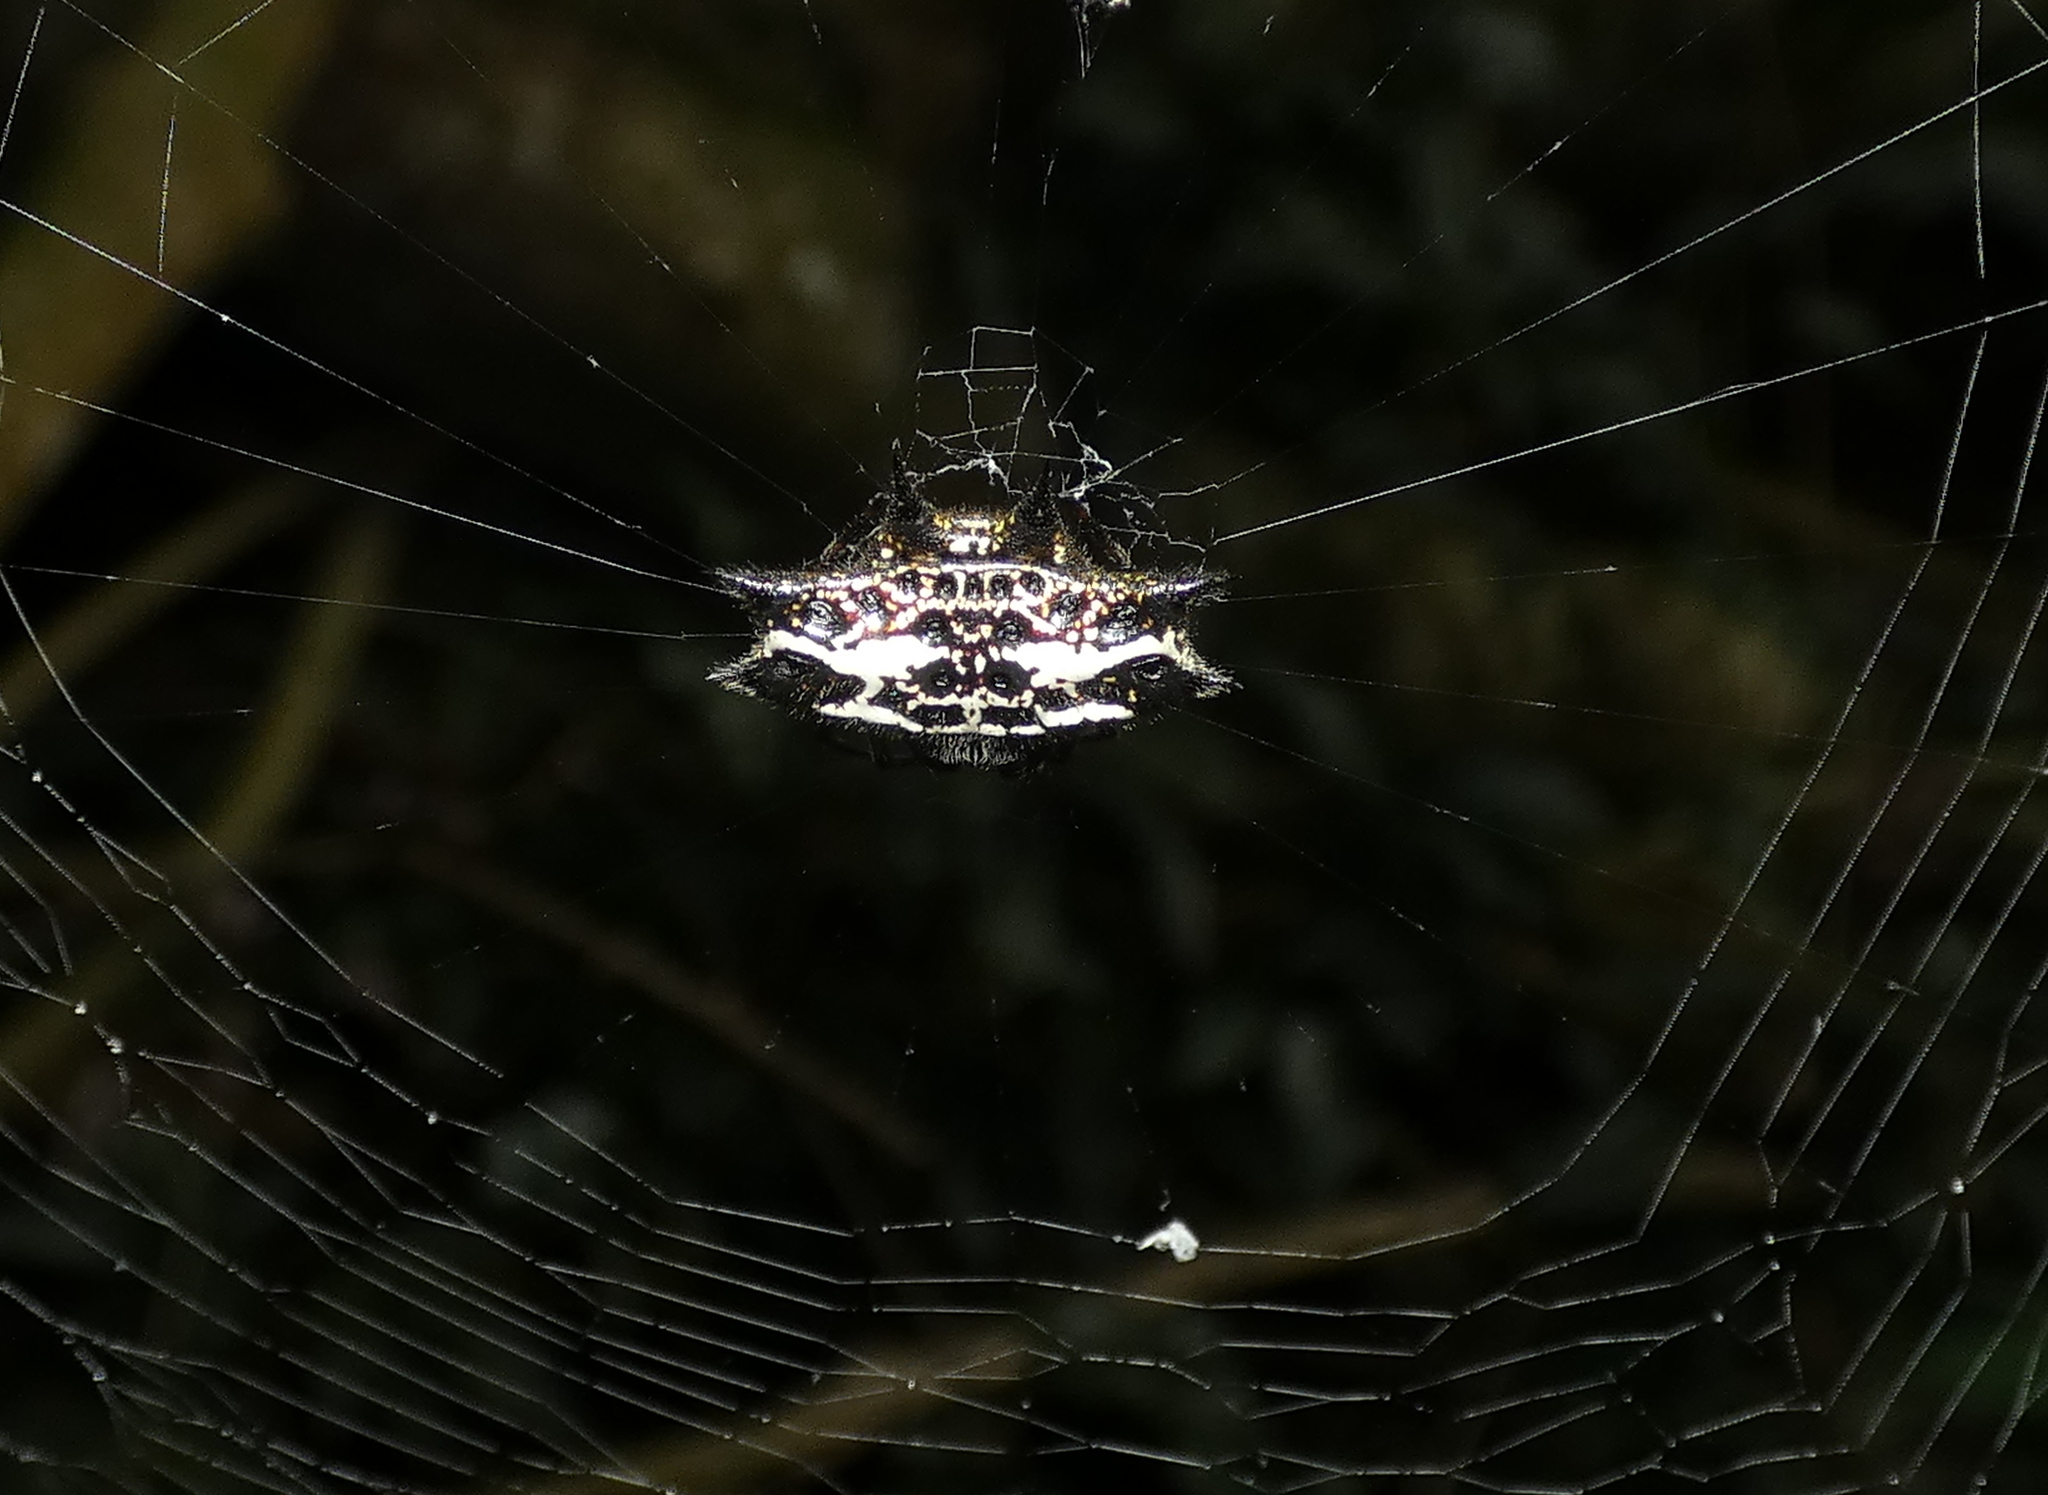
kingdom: Animalia
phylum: Arthropoda
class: Arachnida
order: Araneae
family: Araneidae
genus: Gasteracantha
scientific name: Gasteracantha cancriformis
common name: Orb weavers
